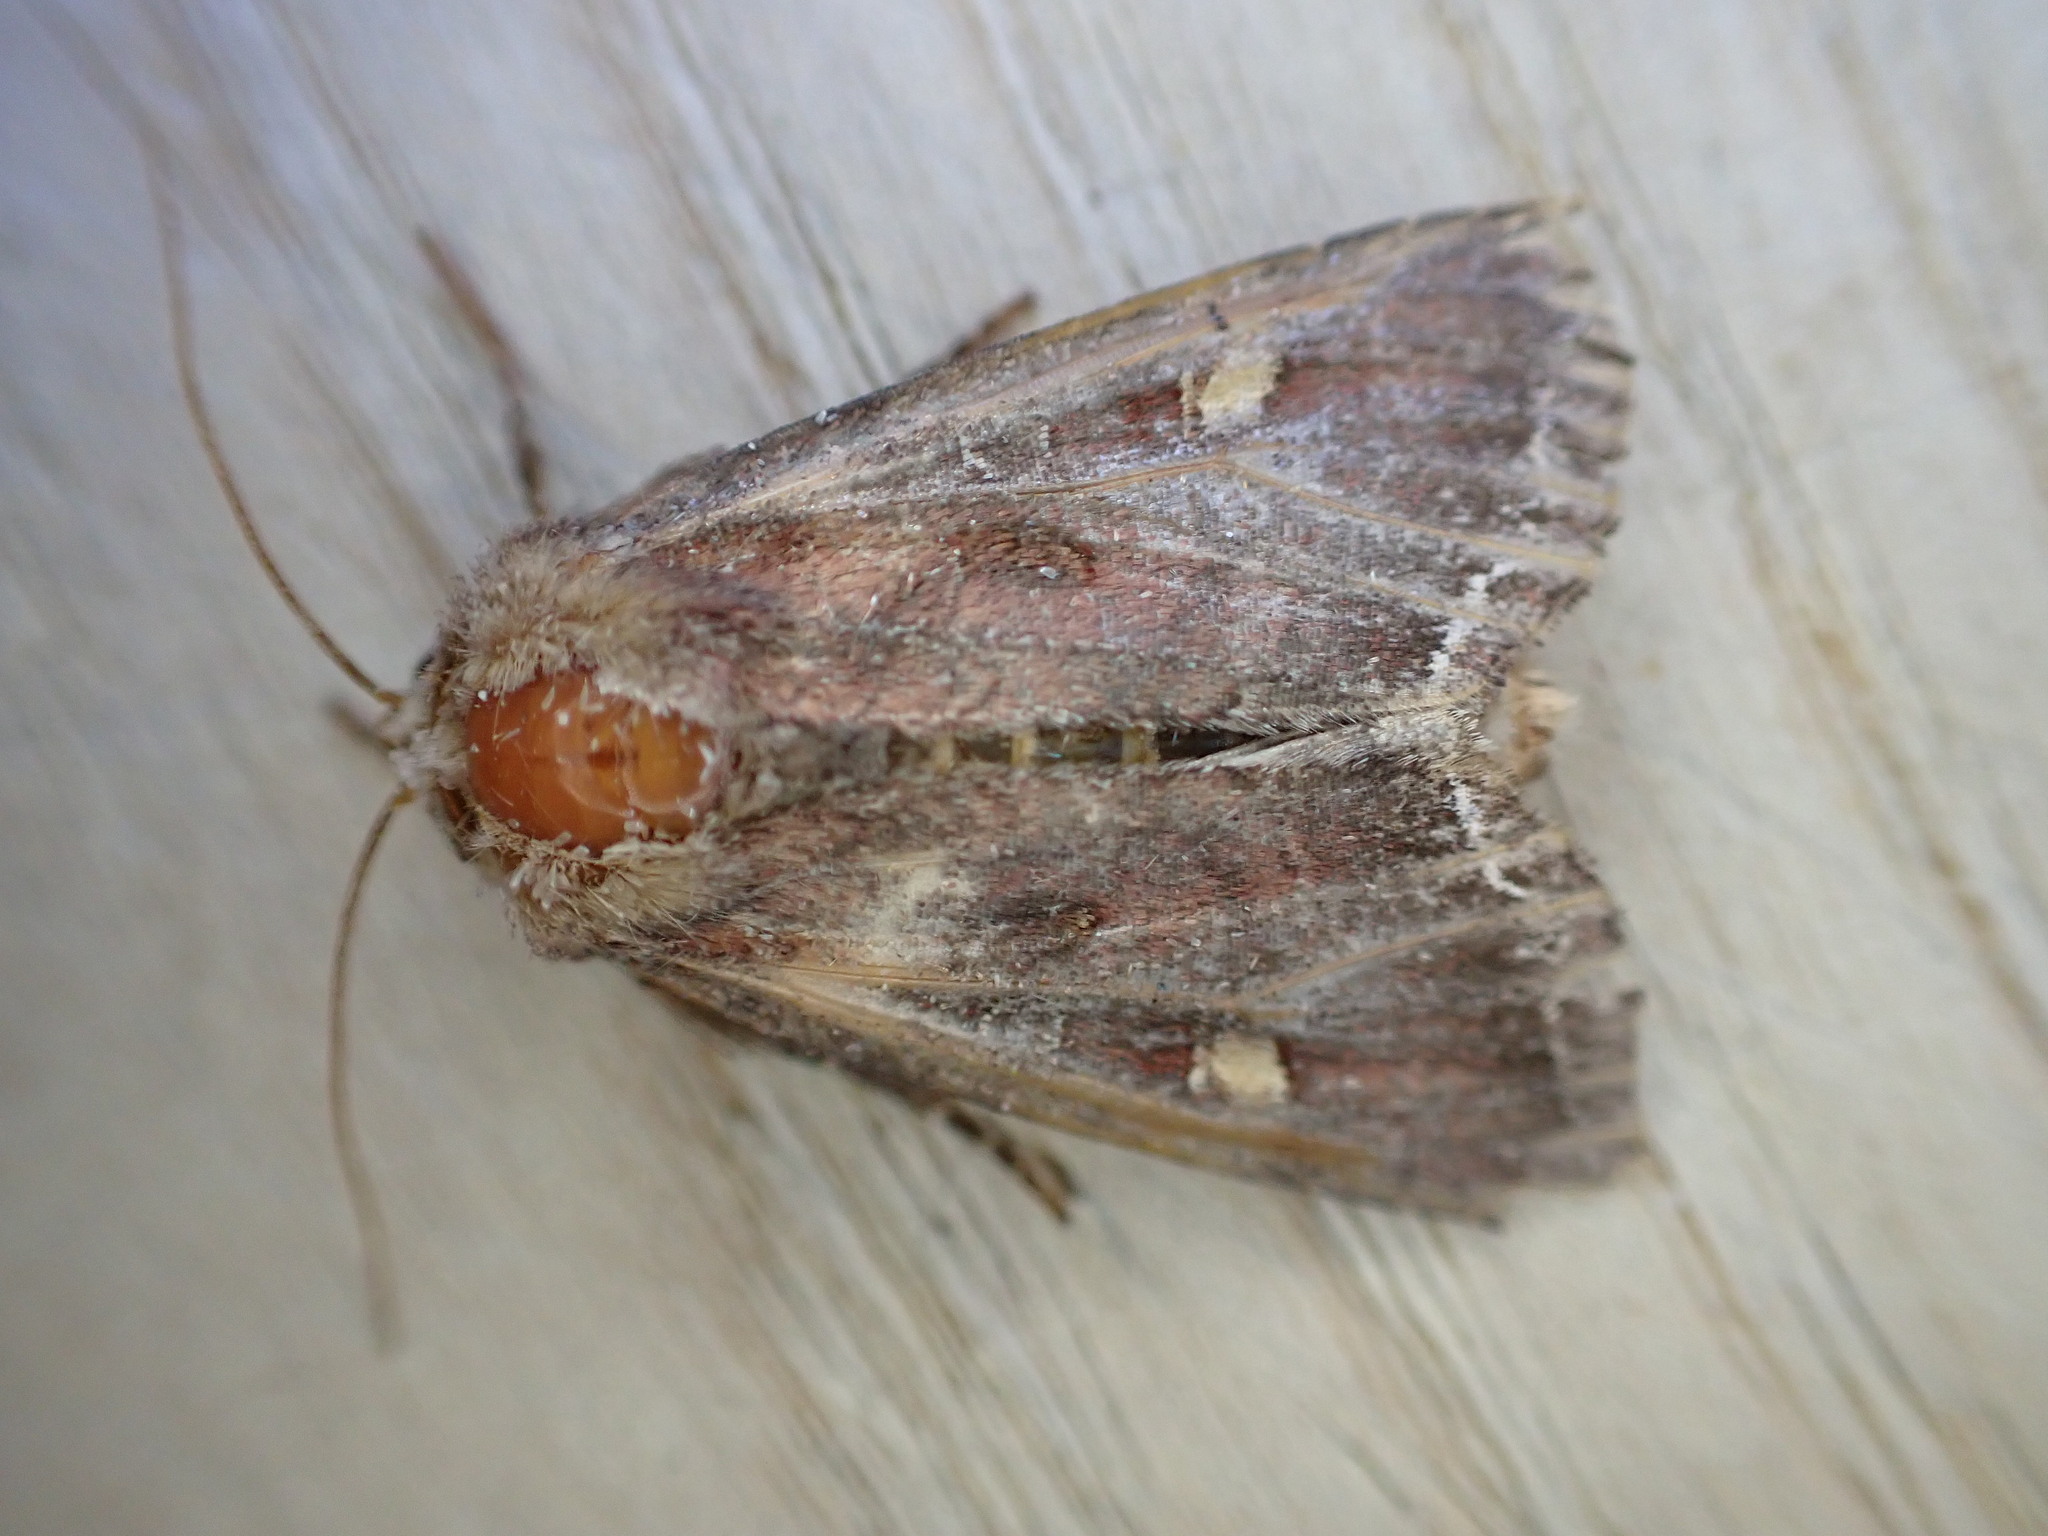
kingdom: Animalia
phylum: Arthropoda
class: Insecta
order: Lepidoptera
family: Noctuidae
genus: Lacanobia
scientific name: Lacanobia oleracea
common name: Bright-line brown-eye
